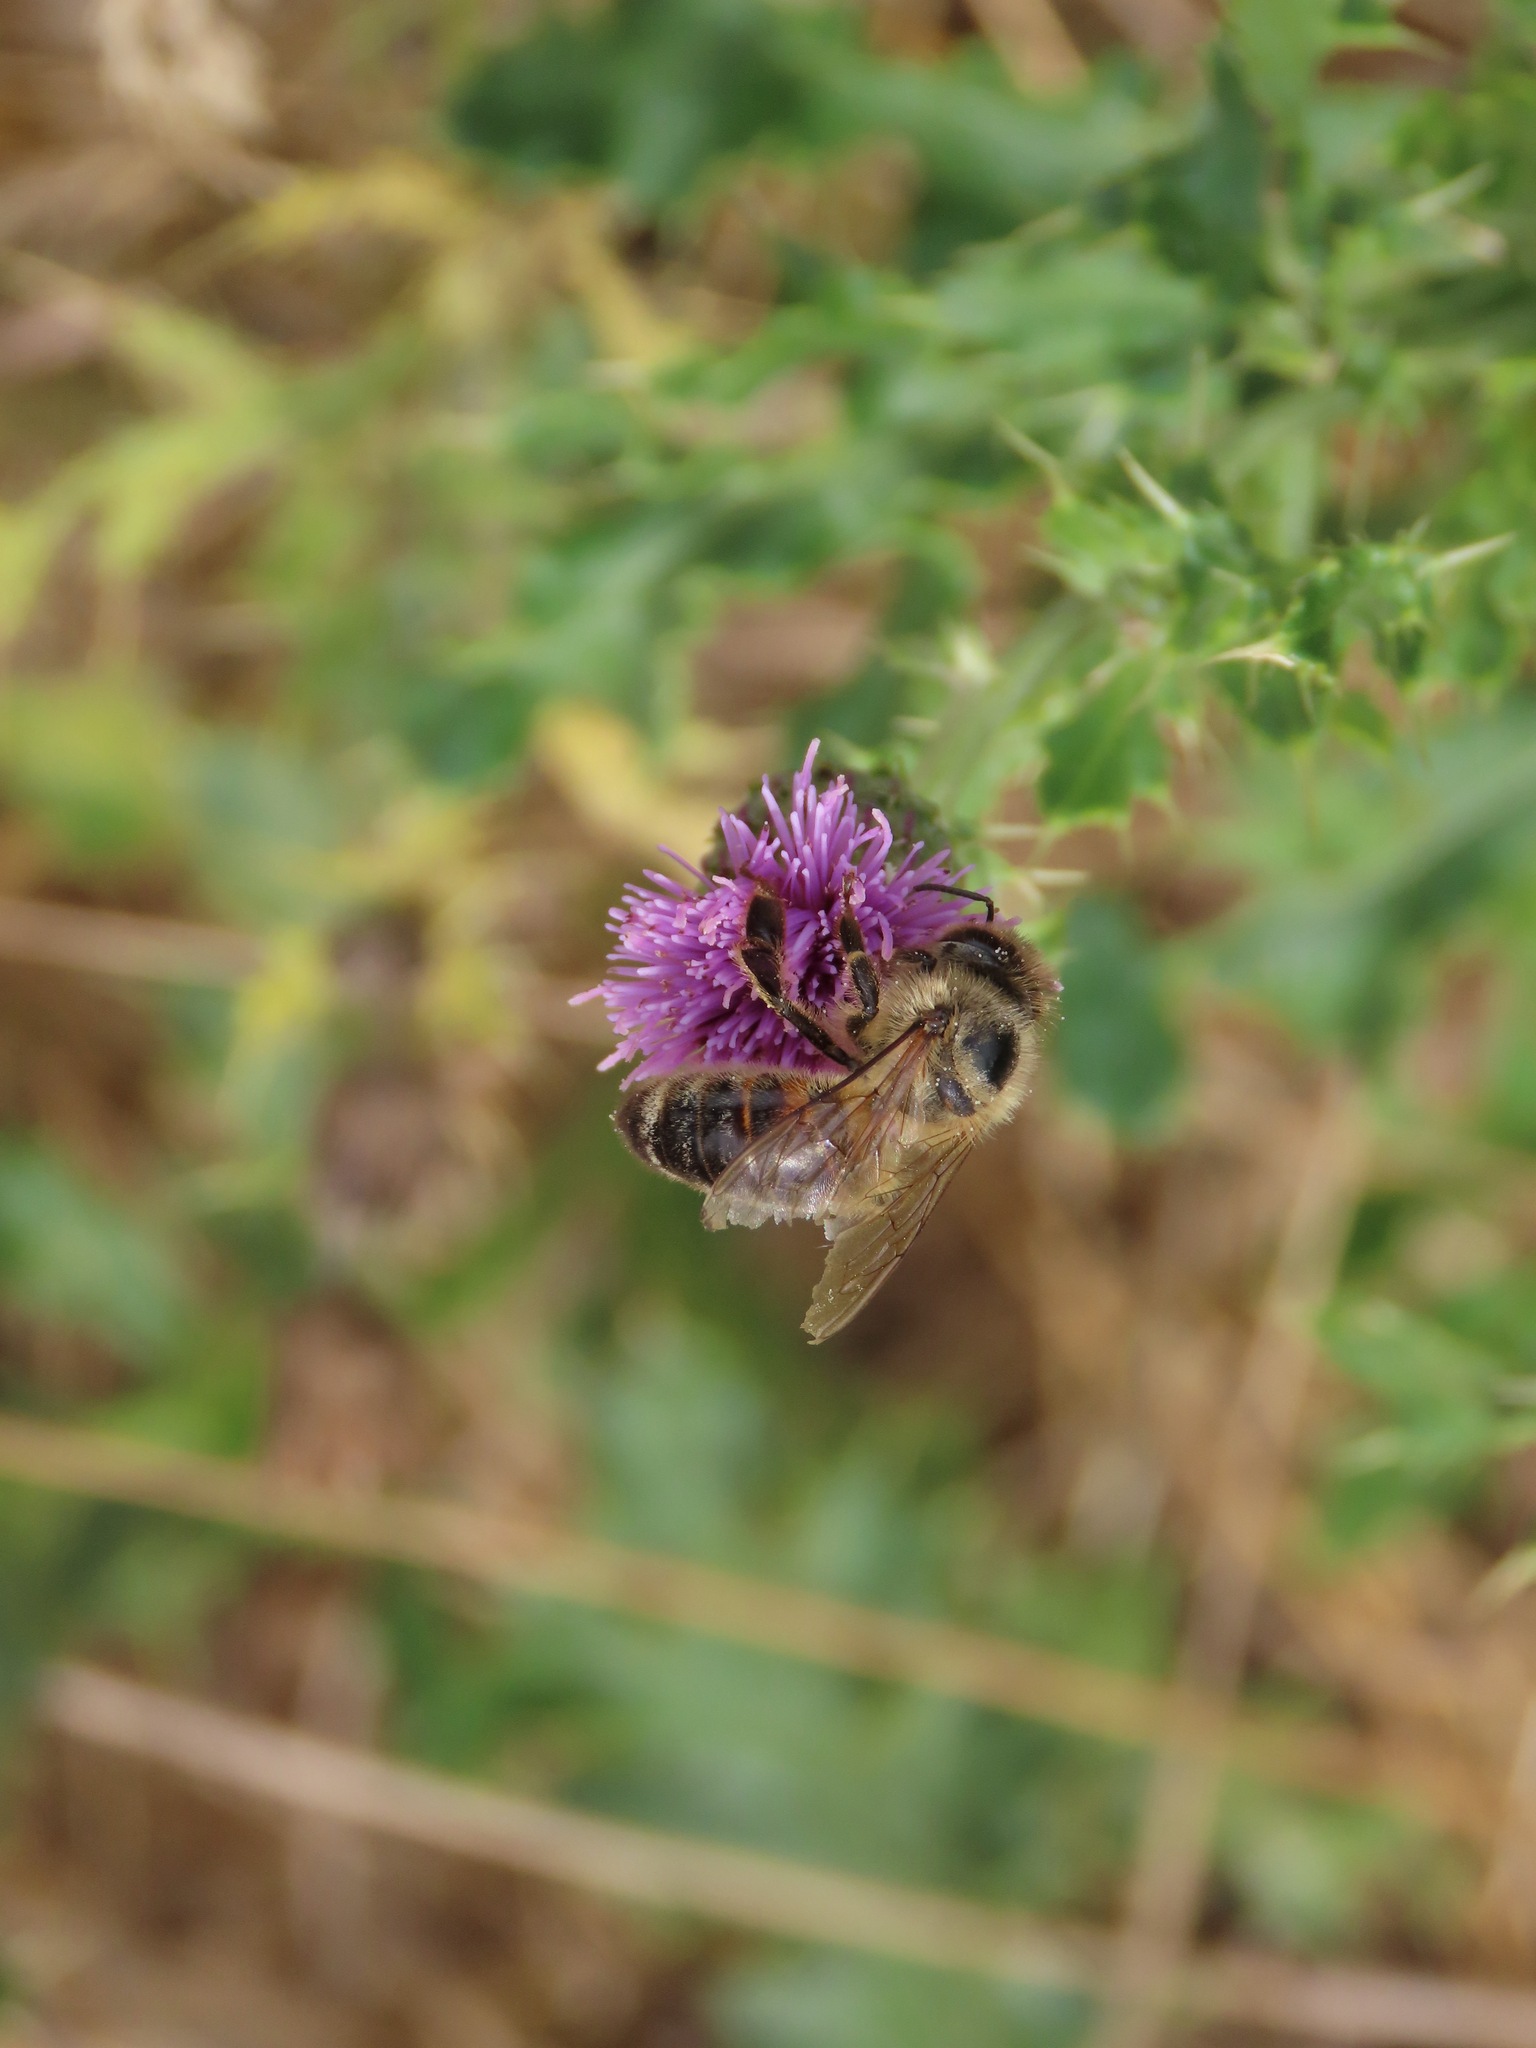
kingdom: Animalia
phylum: Arthropoda
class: Insecta
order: Hymenoptera
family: Apidae
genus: Apis
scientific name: Apis mellifera
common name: Honey bee
